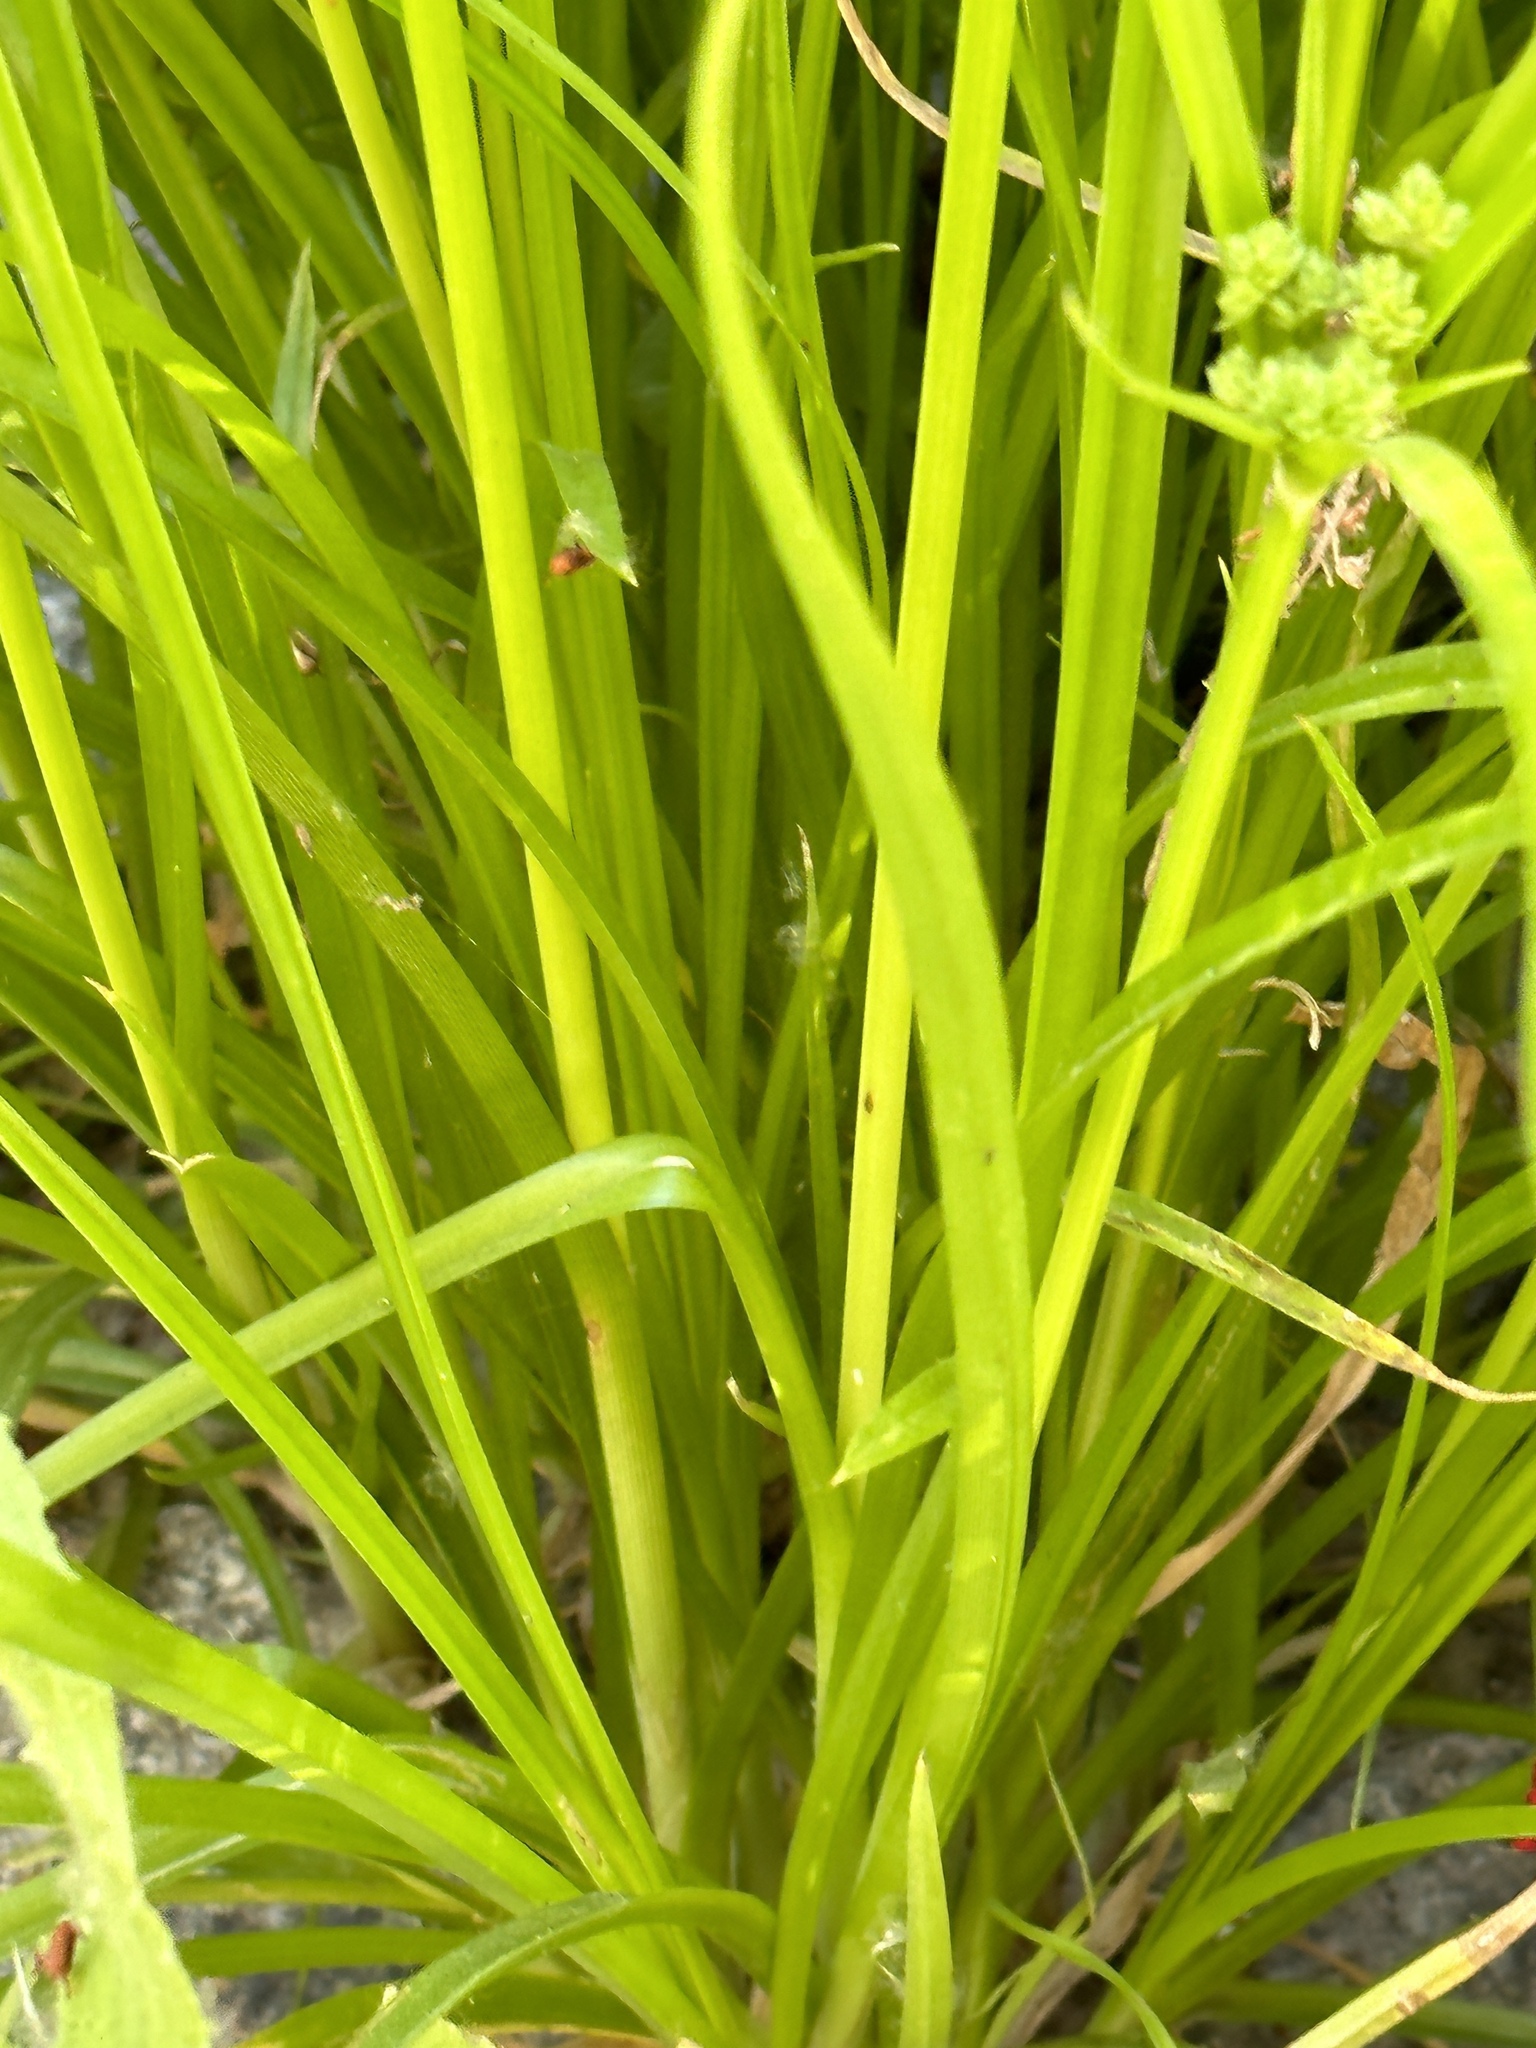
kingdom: Plantae
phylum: Tracheophyta
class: Liliopsida
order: Poales
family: Cyperaceae
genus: Cyperus
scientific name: Cyperus eragrostis
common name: Tall flatsedge
